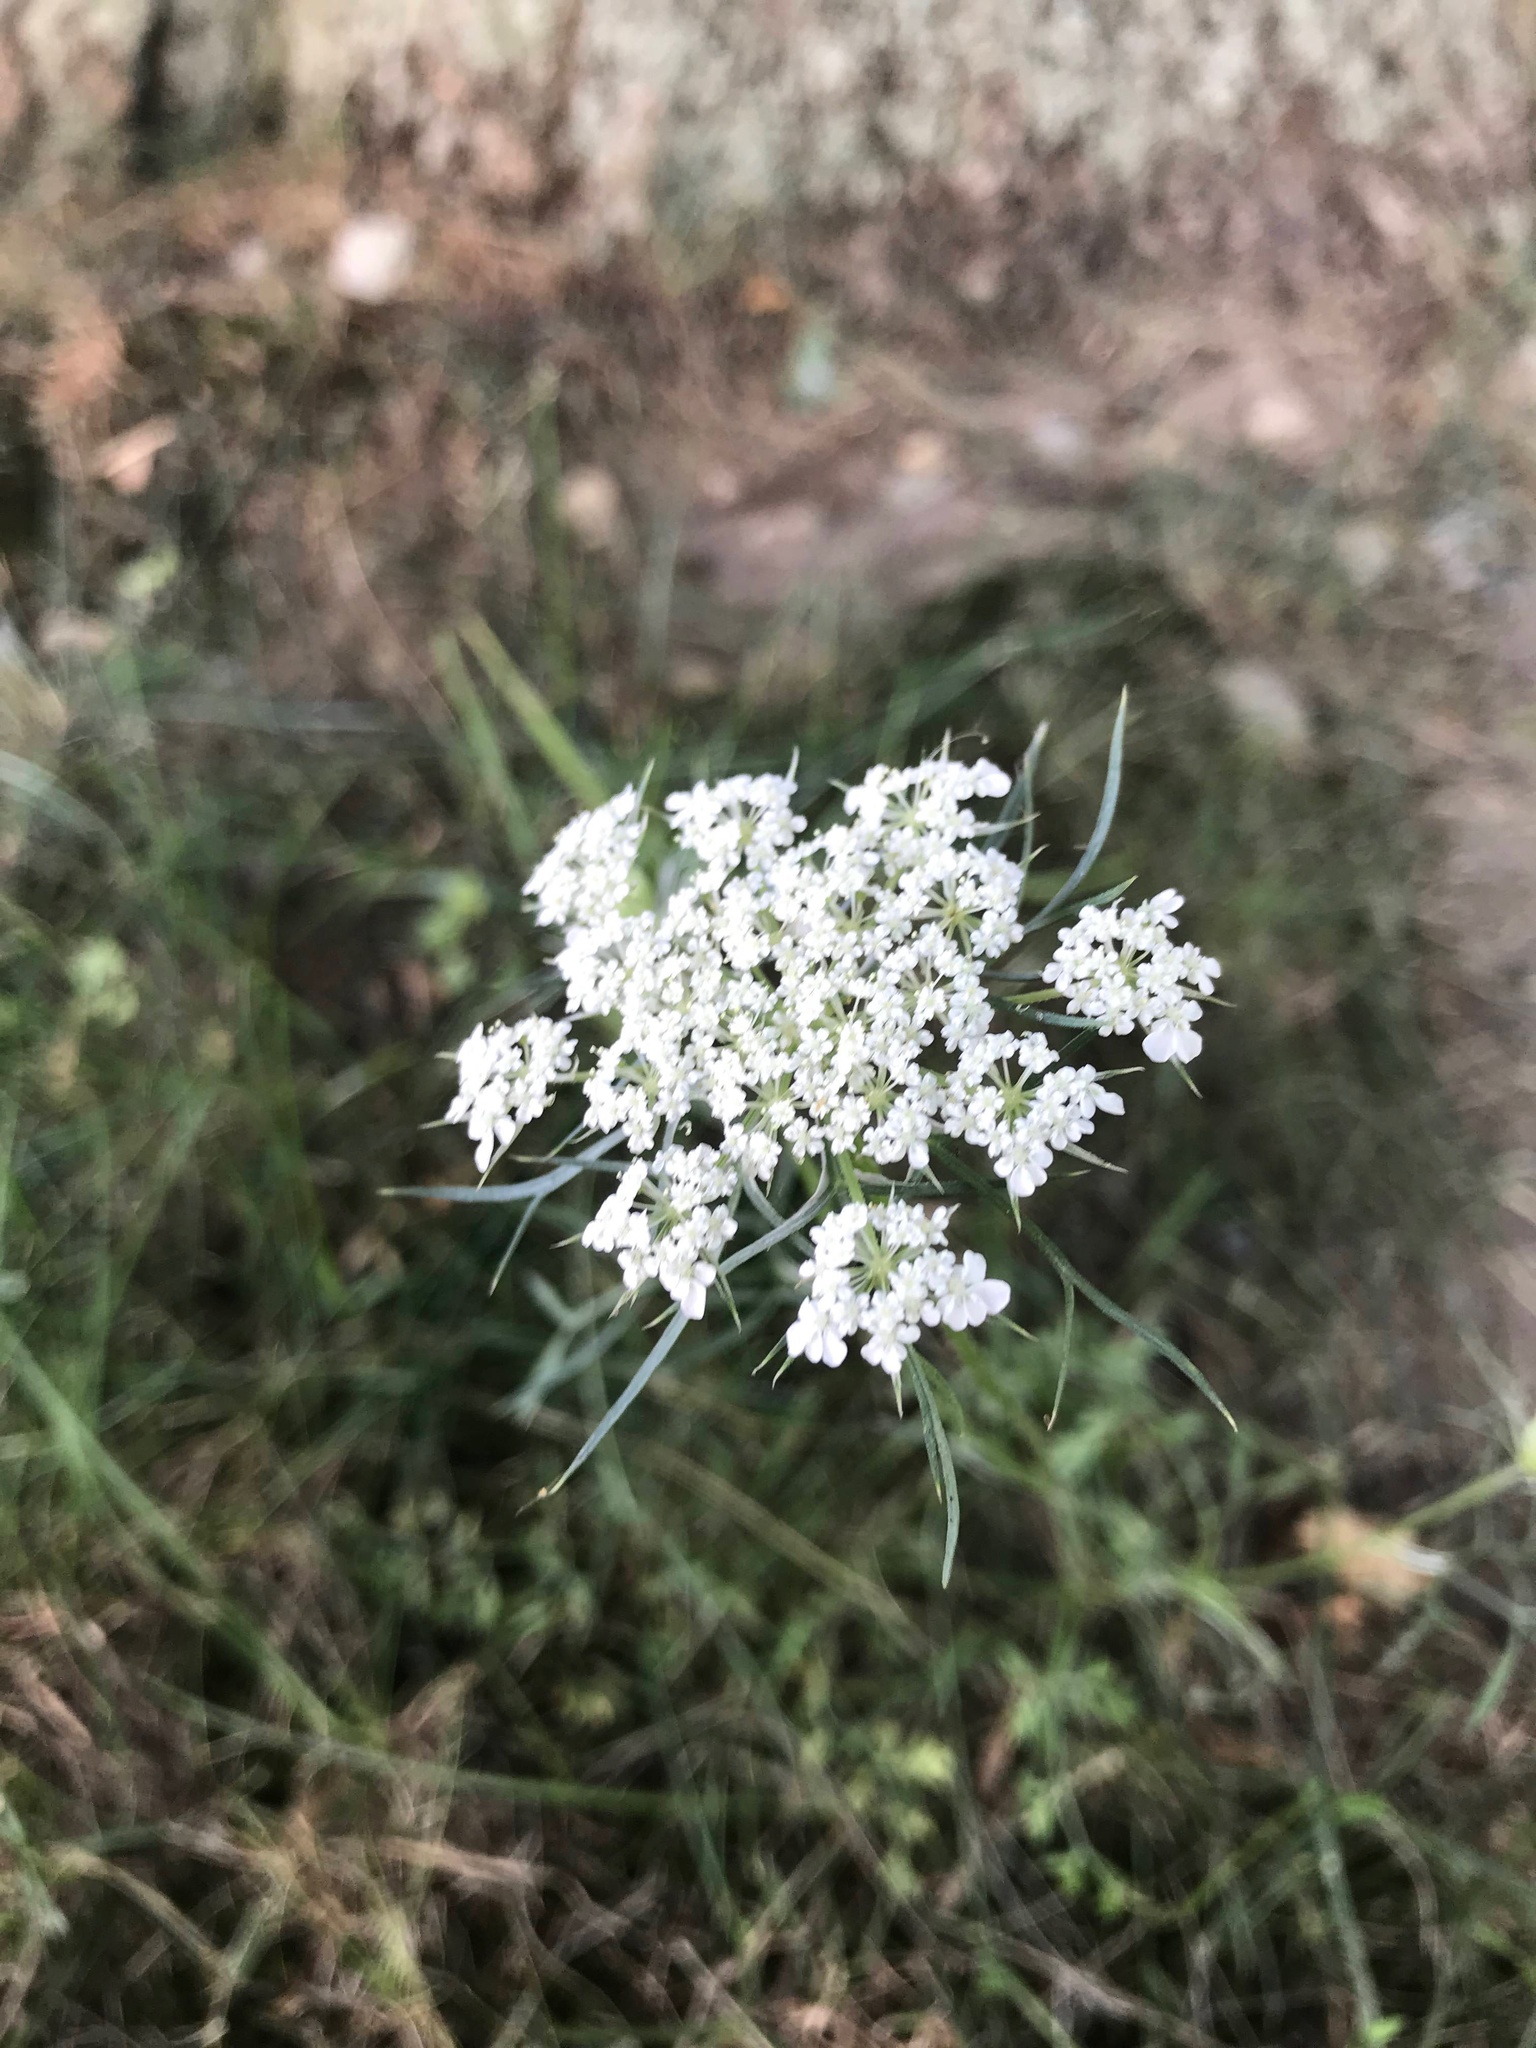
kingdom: Plantae
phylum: Tracheophyta
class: Magnoliopsida
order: Apiales
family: Apiaceae
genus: Daucus
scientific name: Daucus carota
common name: Wild carrot
